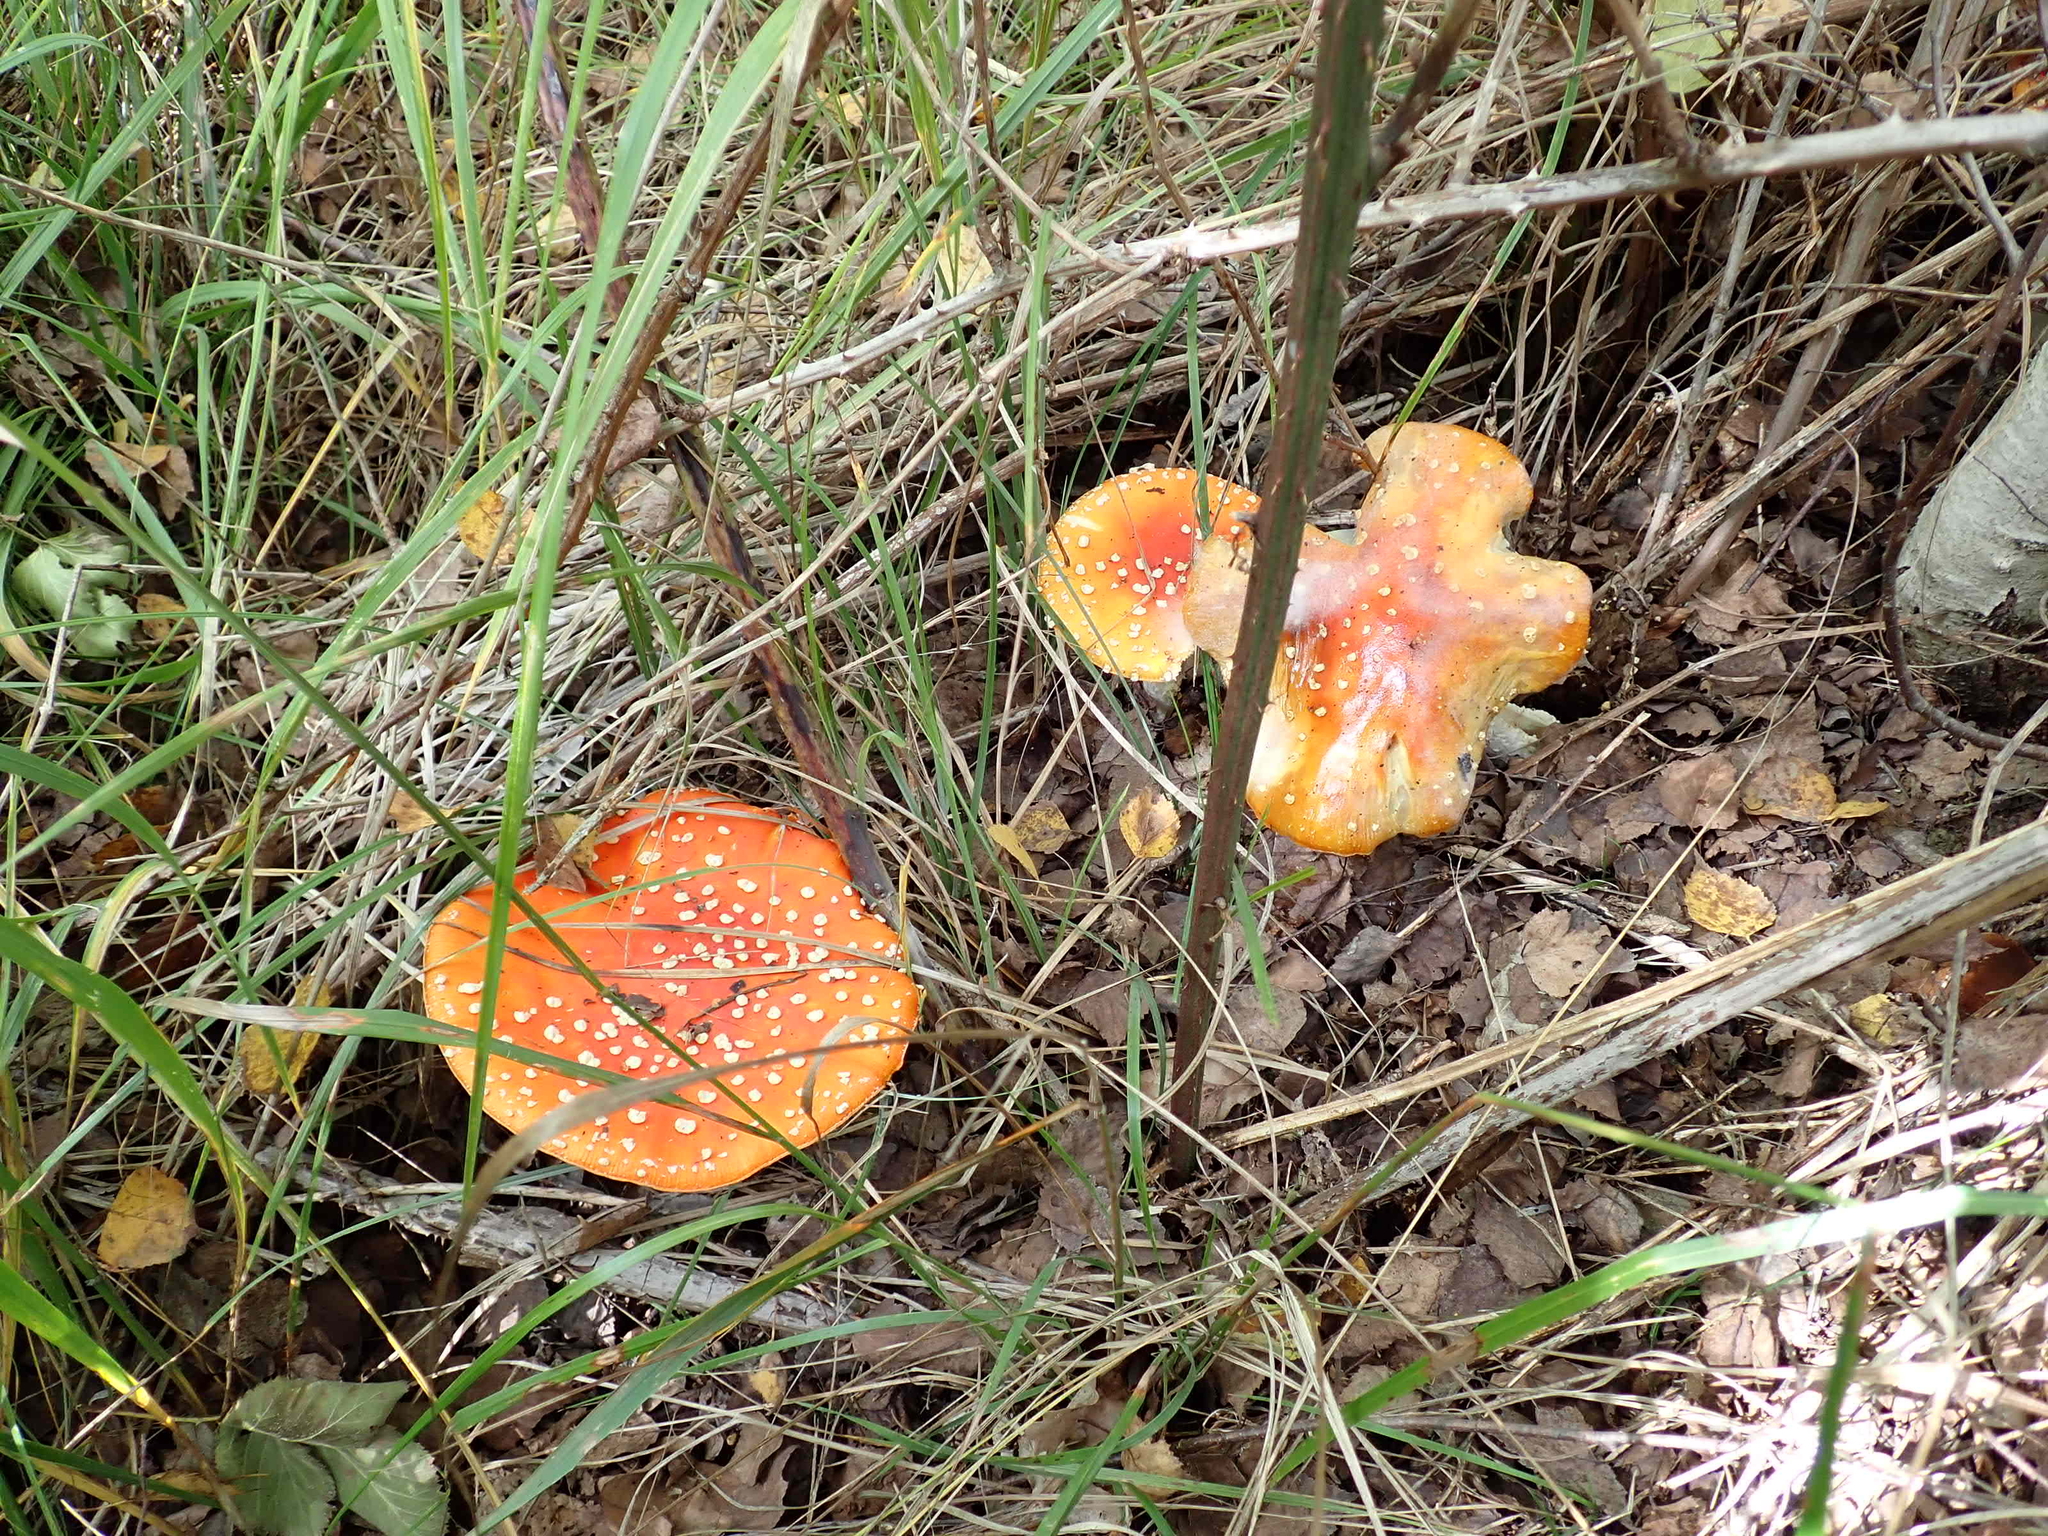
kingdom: Fungi
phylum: Basidiomycota
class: Agaricomycetes
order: Agaricales
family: Amanitaceae
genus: Amanita
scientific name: Amanita muscaria
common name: Fly agaric
